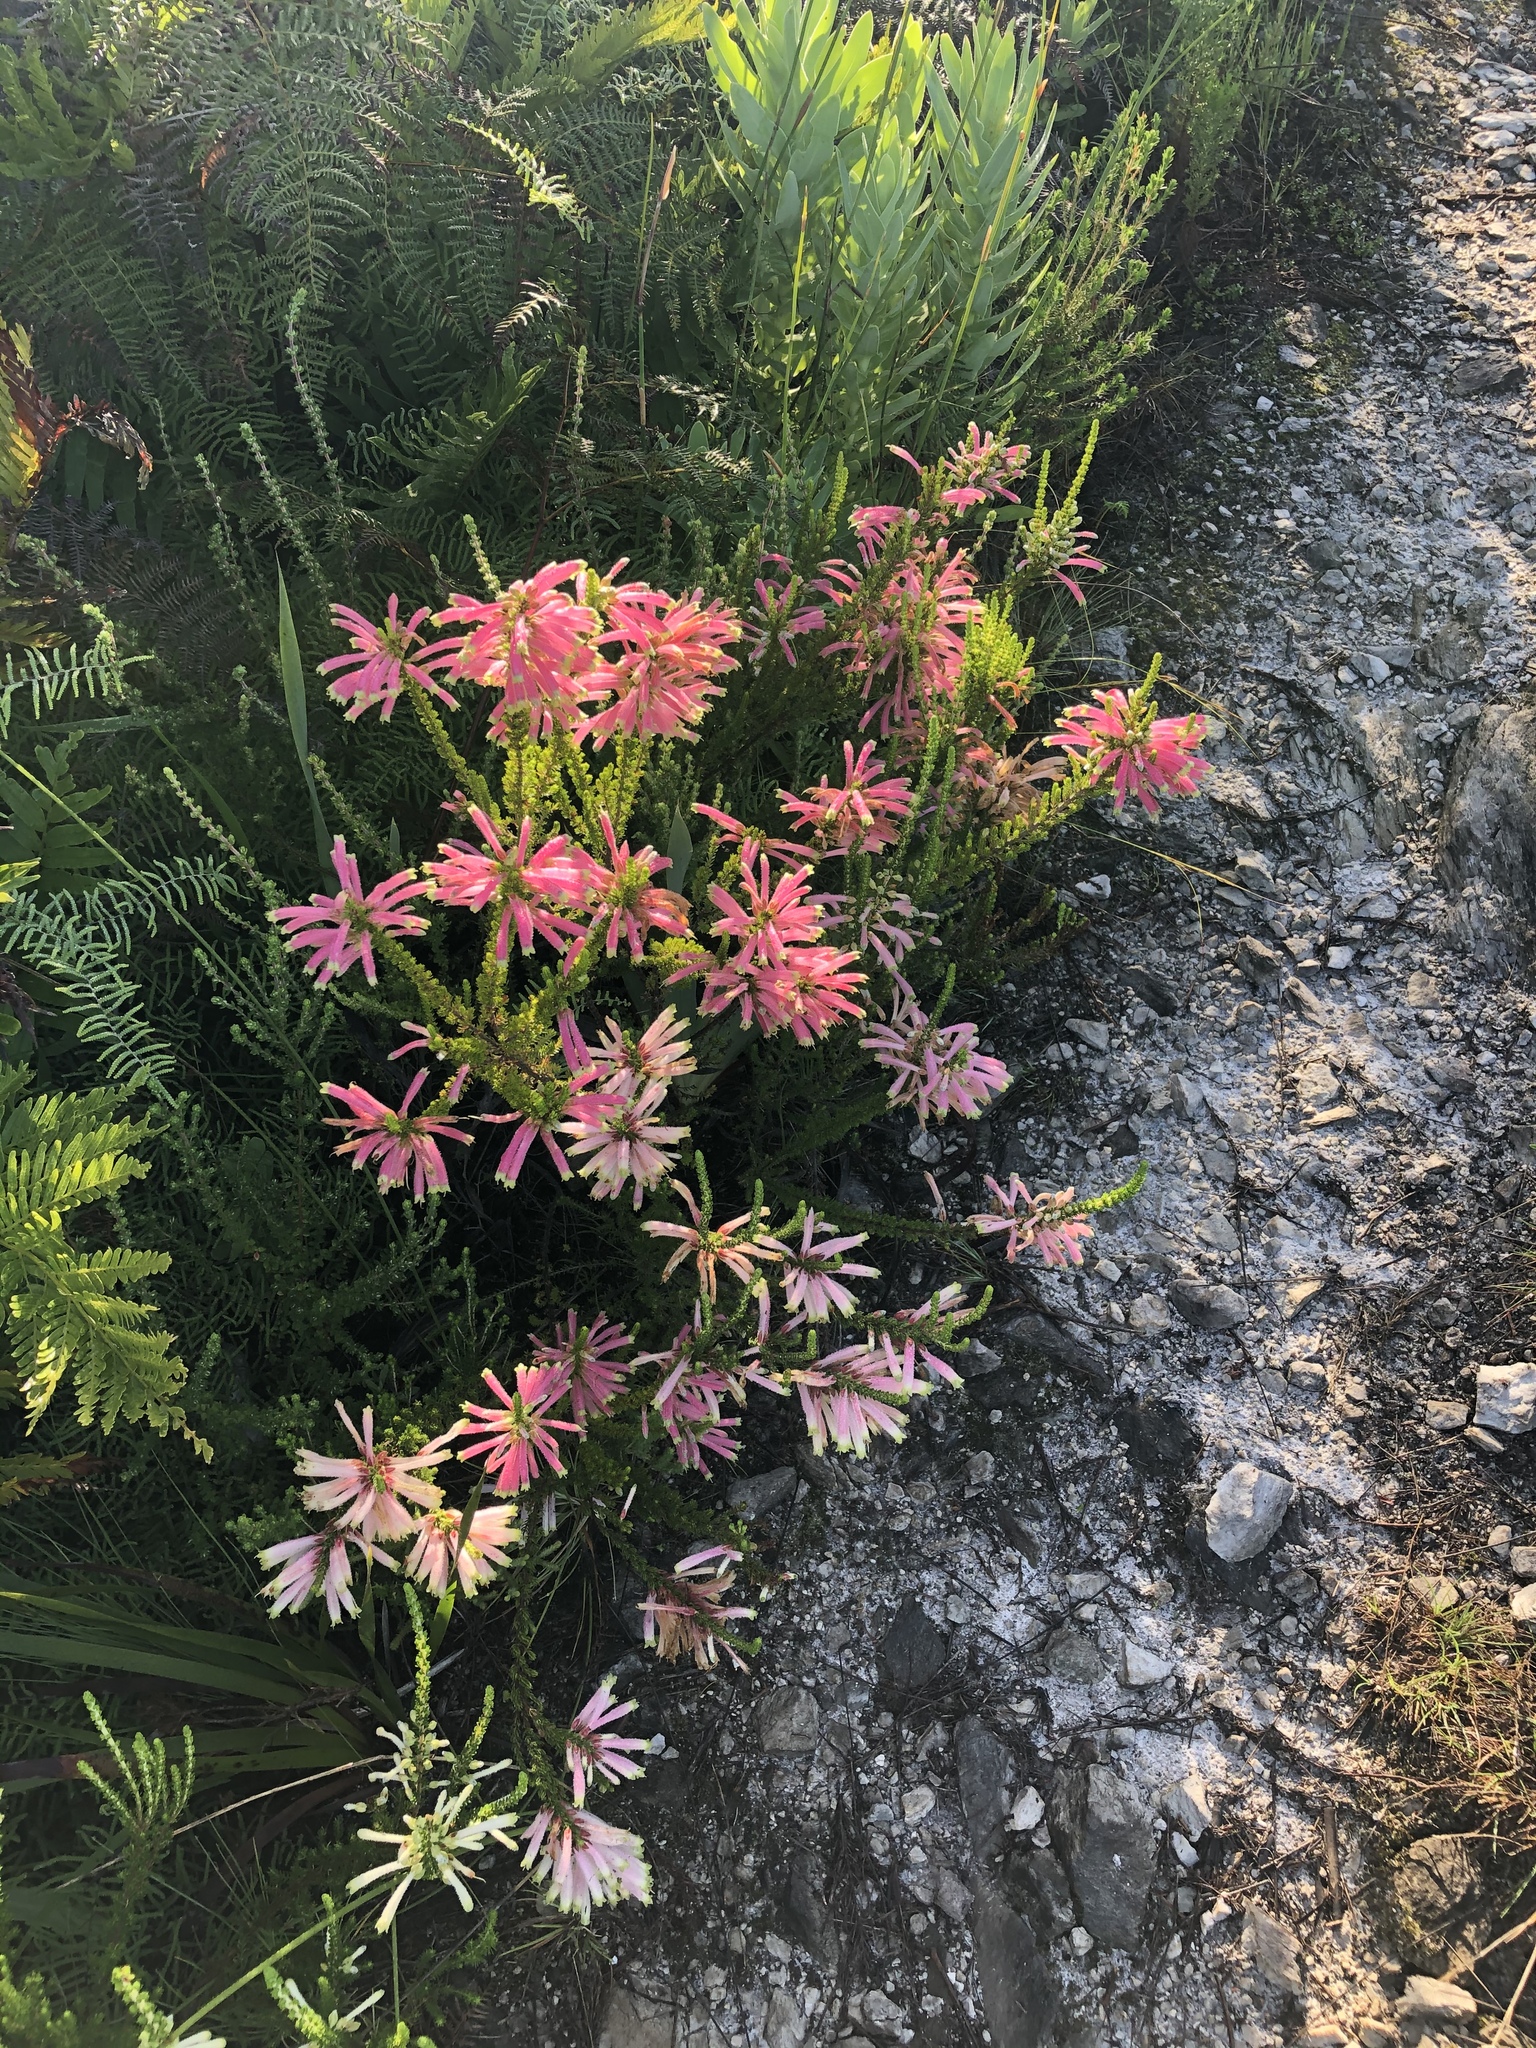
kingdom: Plantae
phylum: Tracheophyta
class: Magnoliopsida
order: Ericales
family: Ericaceae
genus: Erica
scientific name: Erica densifolia
